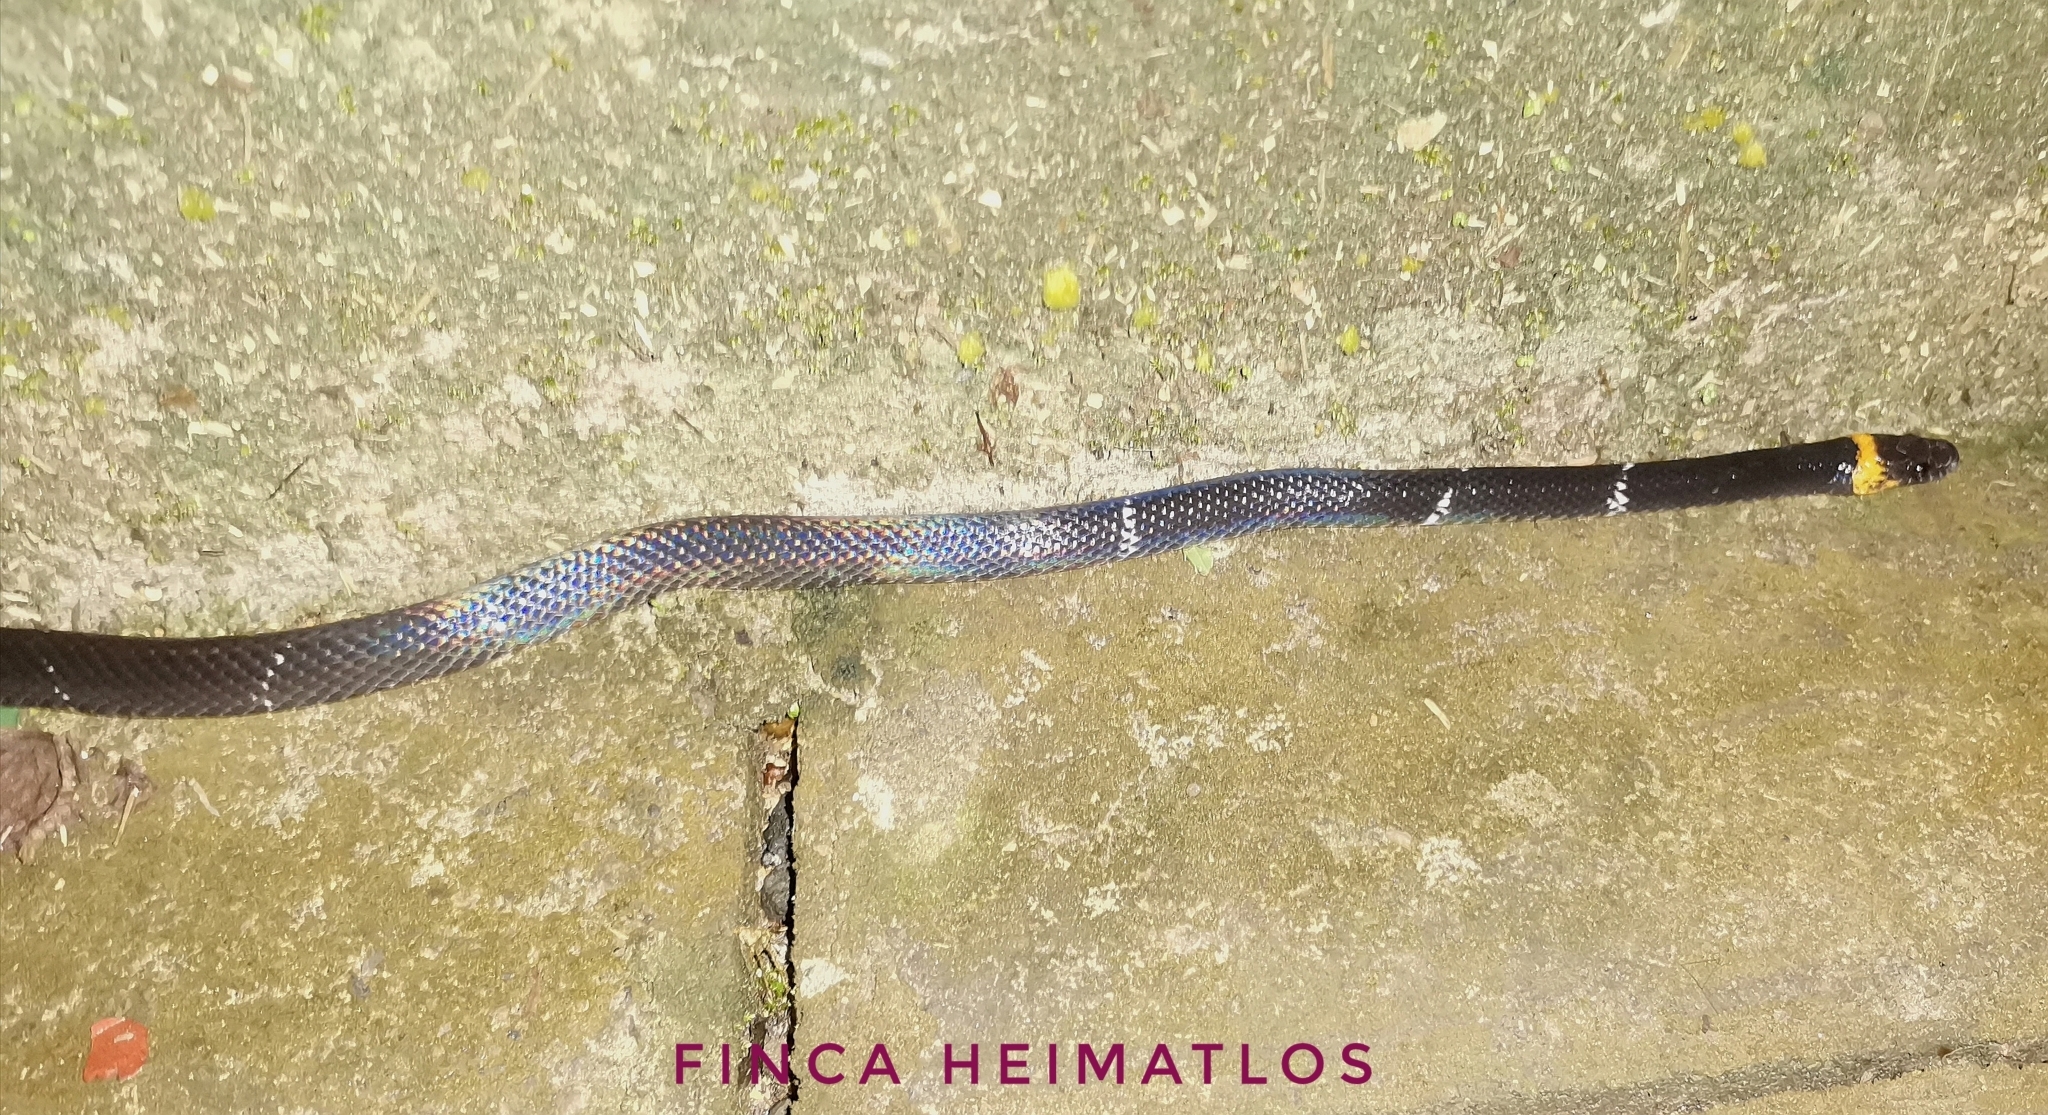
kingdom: Animalia
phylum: Chordata
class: Squamata
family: Colubridae
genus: Oxyrhopus
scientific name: Oxyrhopus vanidicus
